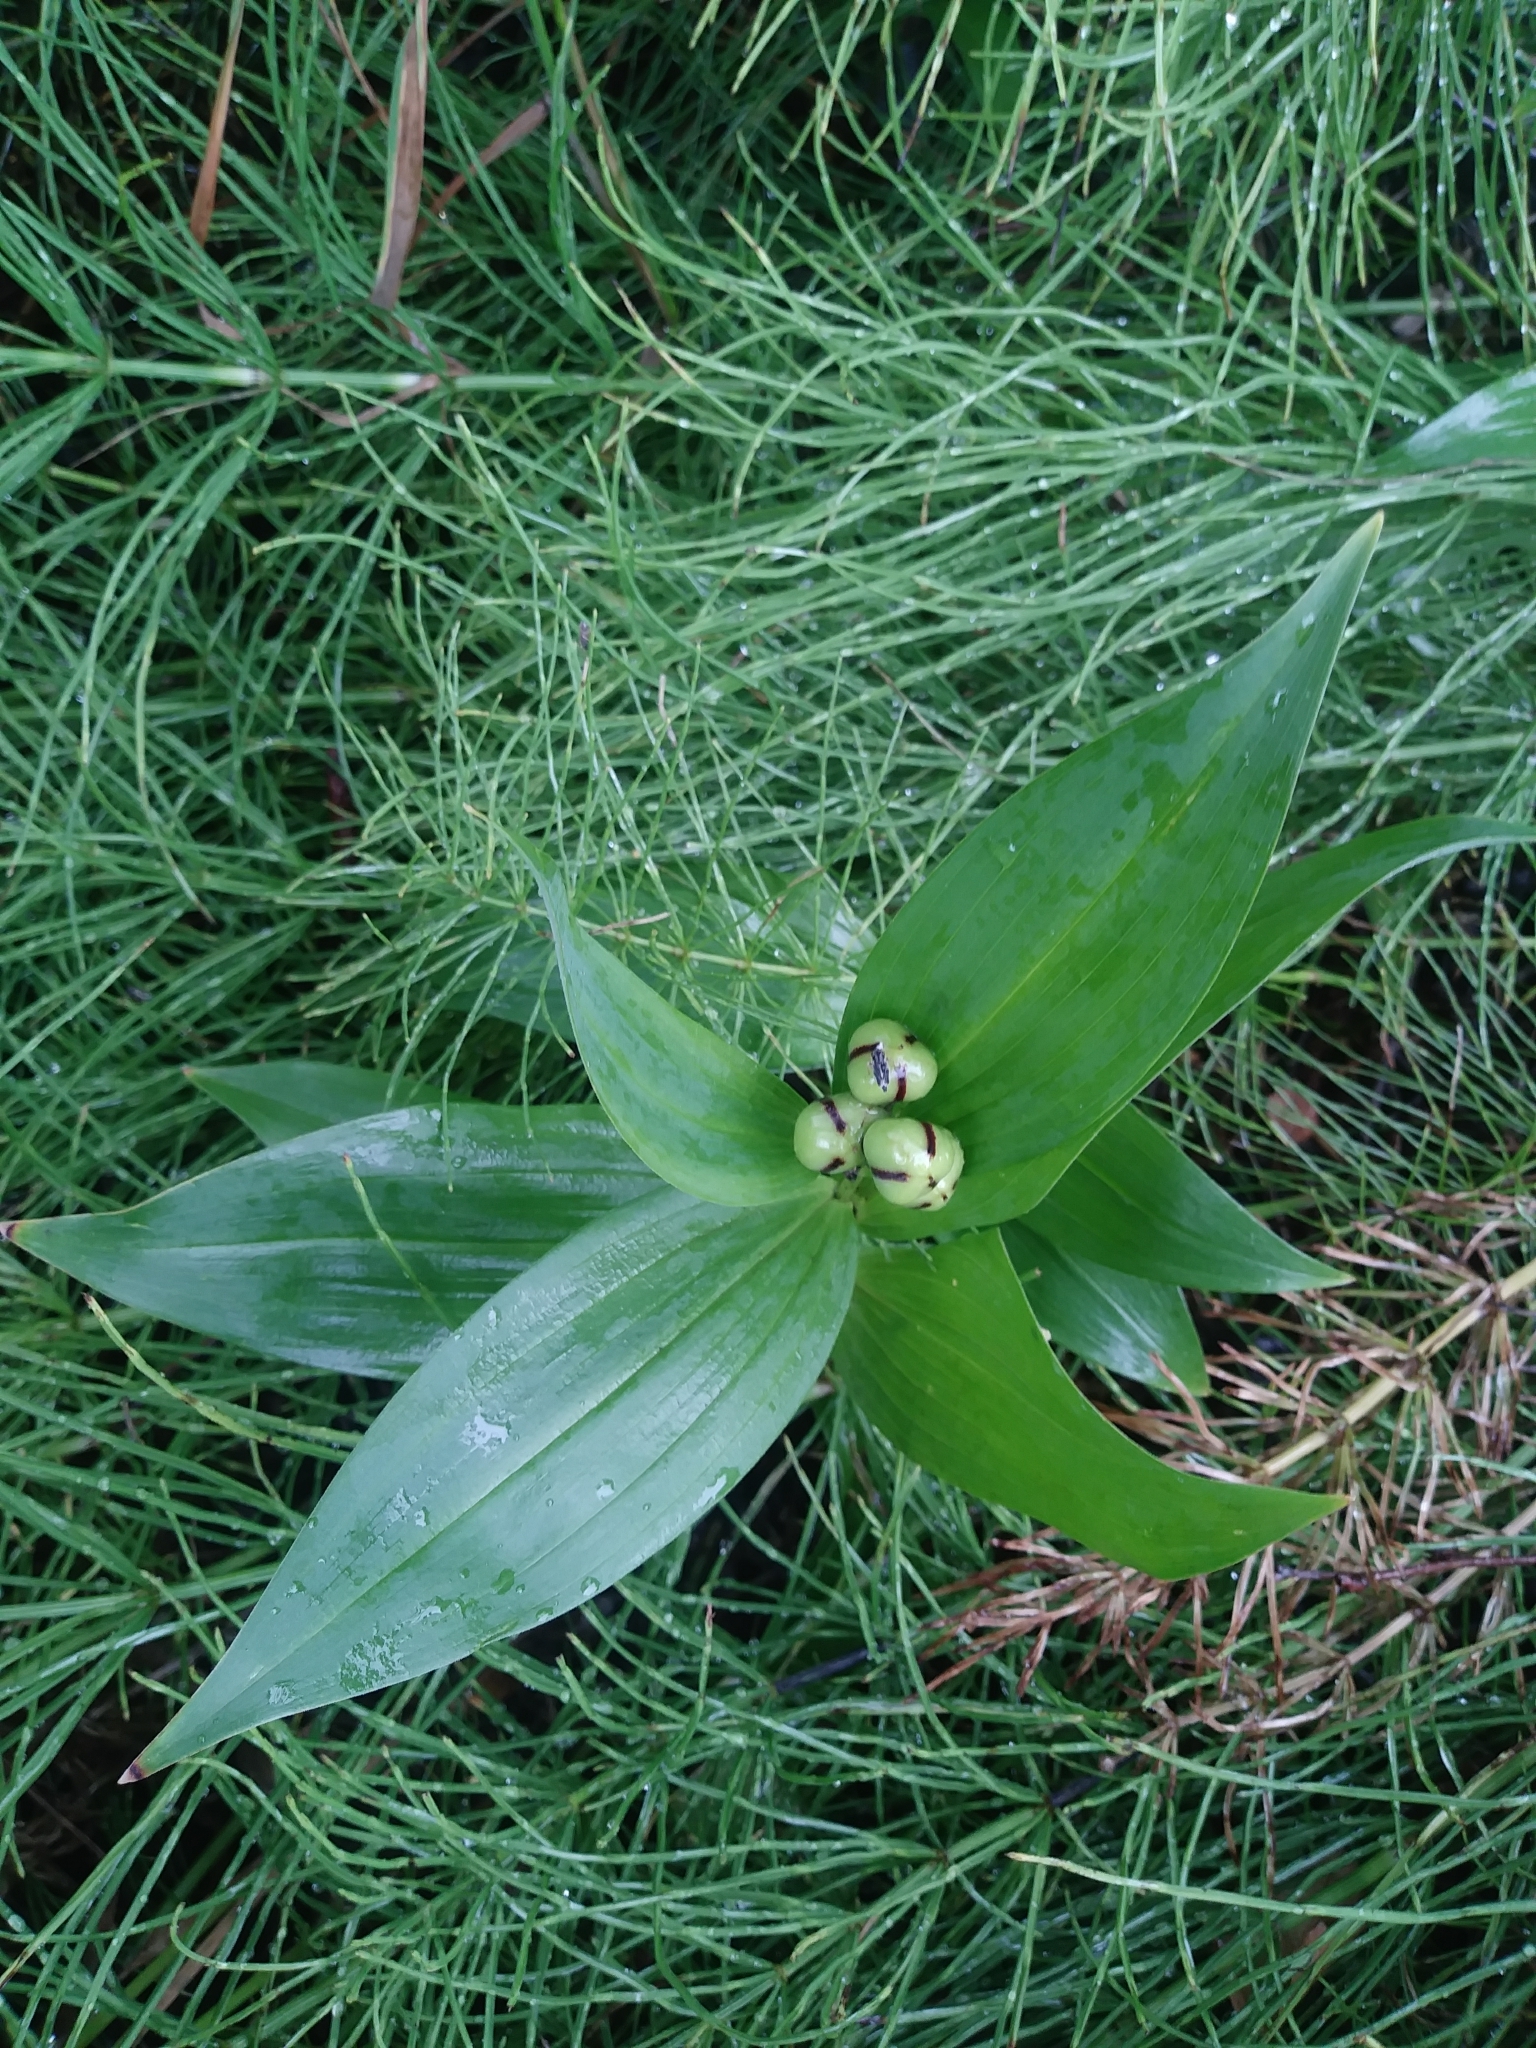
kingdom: Plantae
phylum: Tracheophyta
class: Liliopsida
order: Asparagales
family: Asparagaceae
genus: Maianthemum
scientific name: Maianthemum stellatum
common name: Little false solomon's seal
